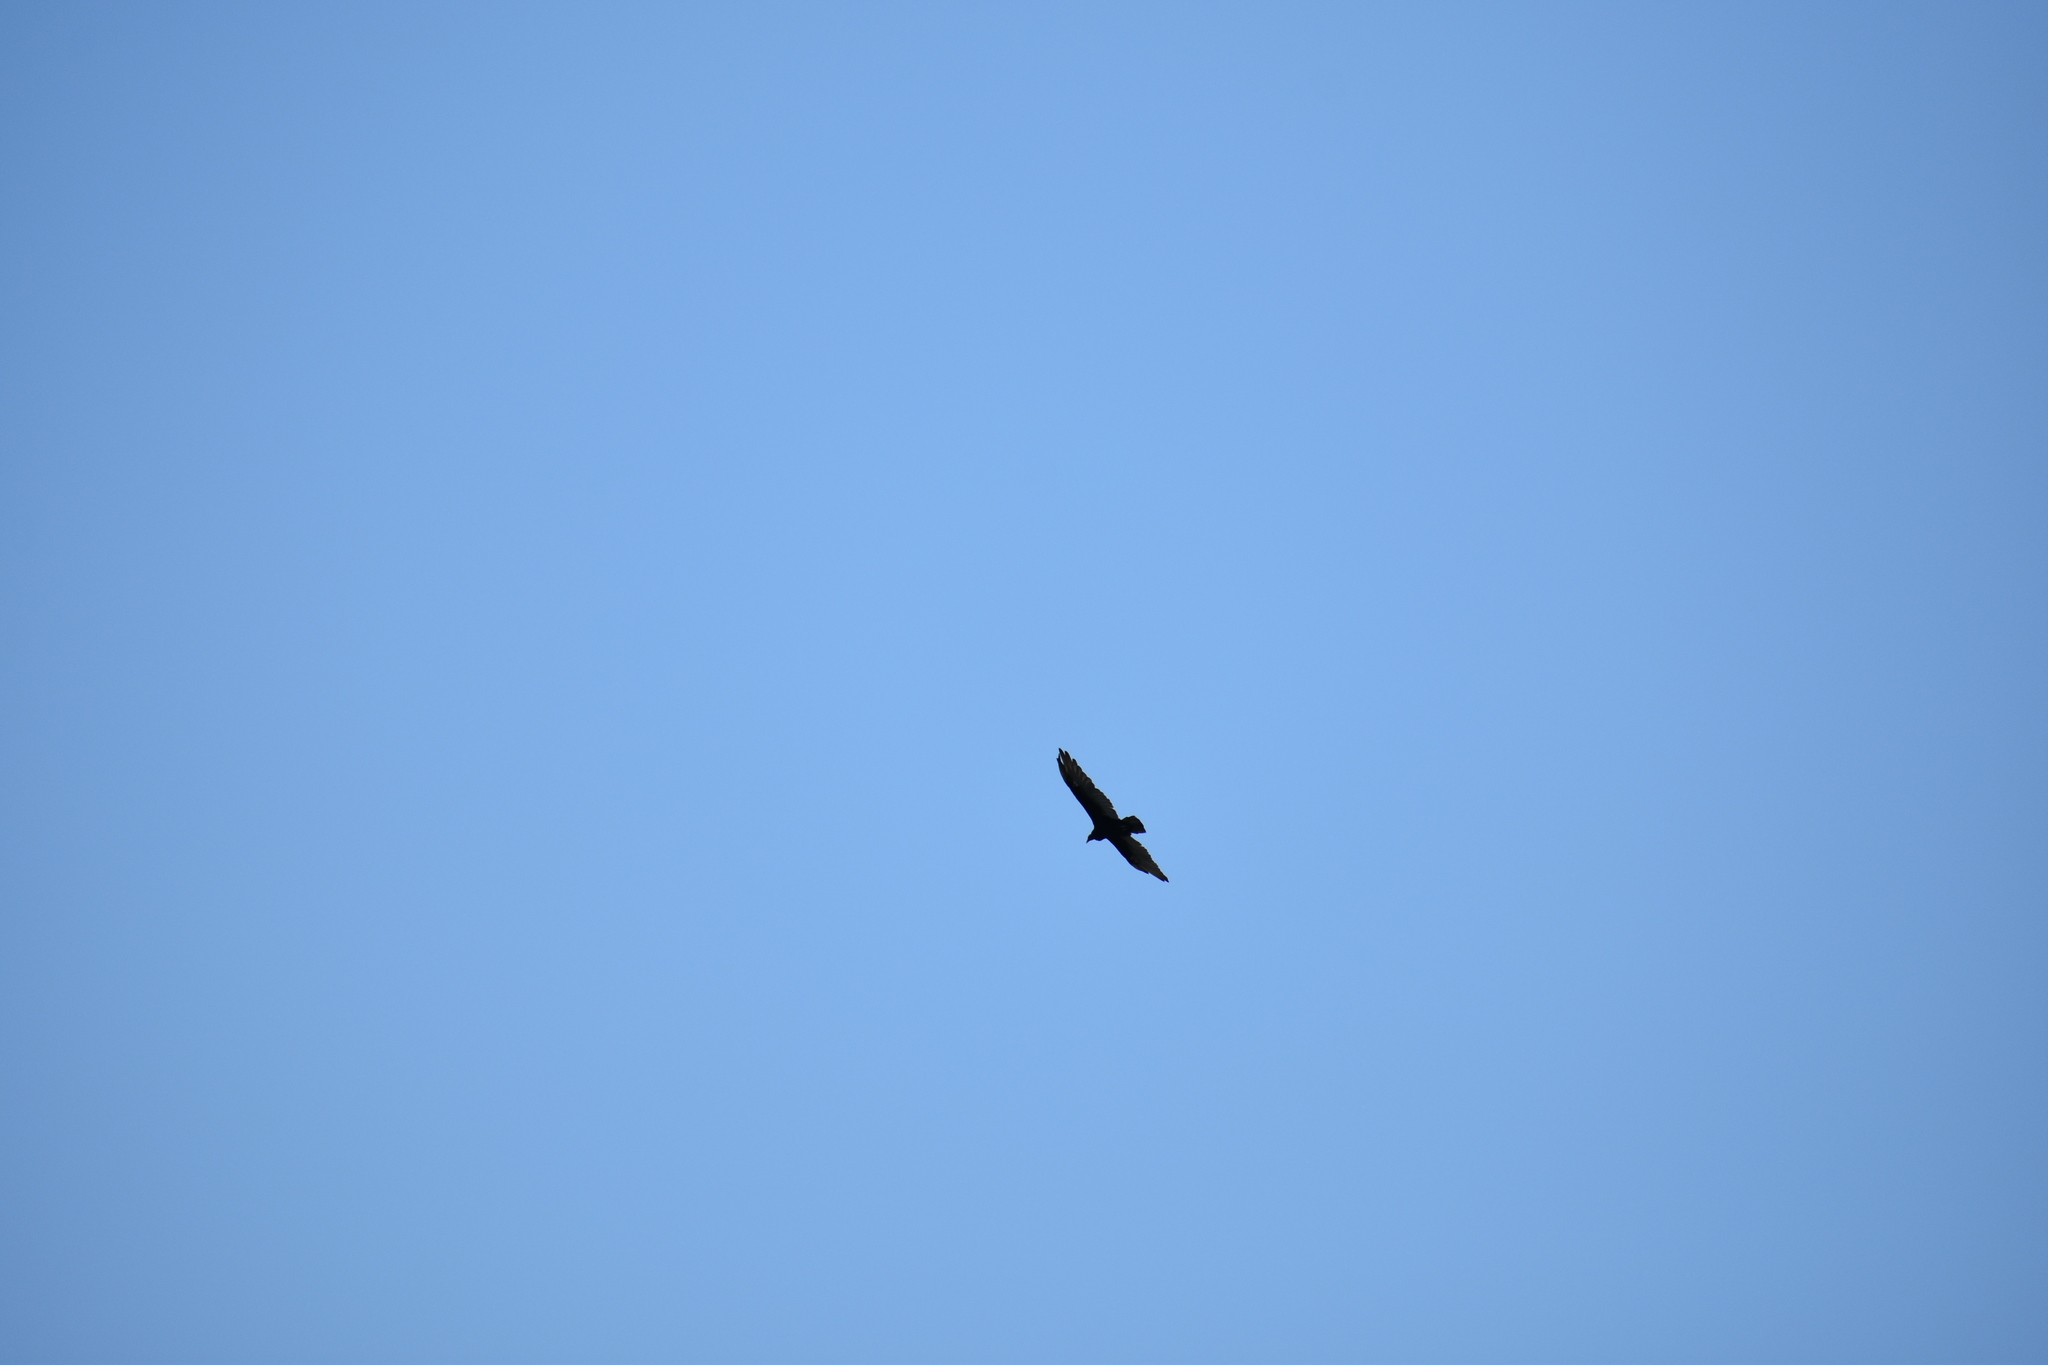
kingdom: Animalia
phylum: Chordata
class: Aves
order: Accipitriformes
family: Cathartidae
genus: Cathartes
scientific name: Cathartes aura
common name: Turkey vulture
